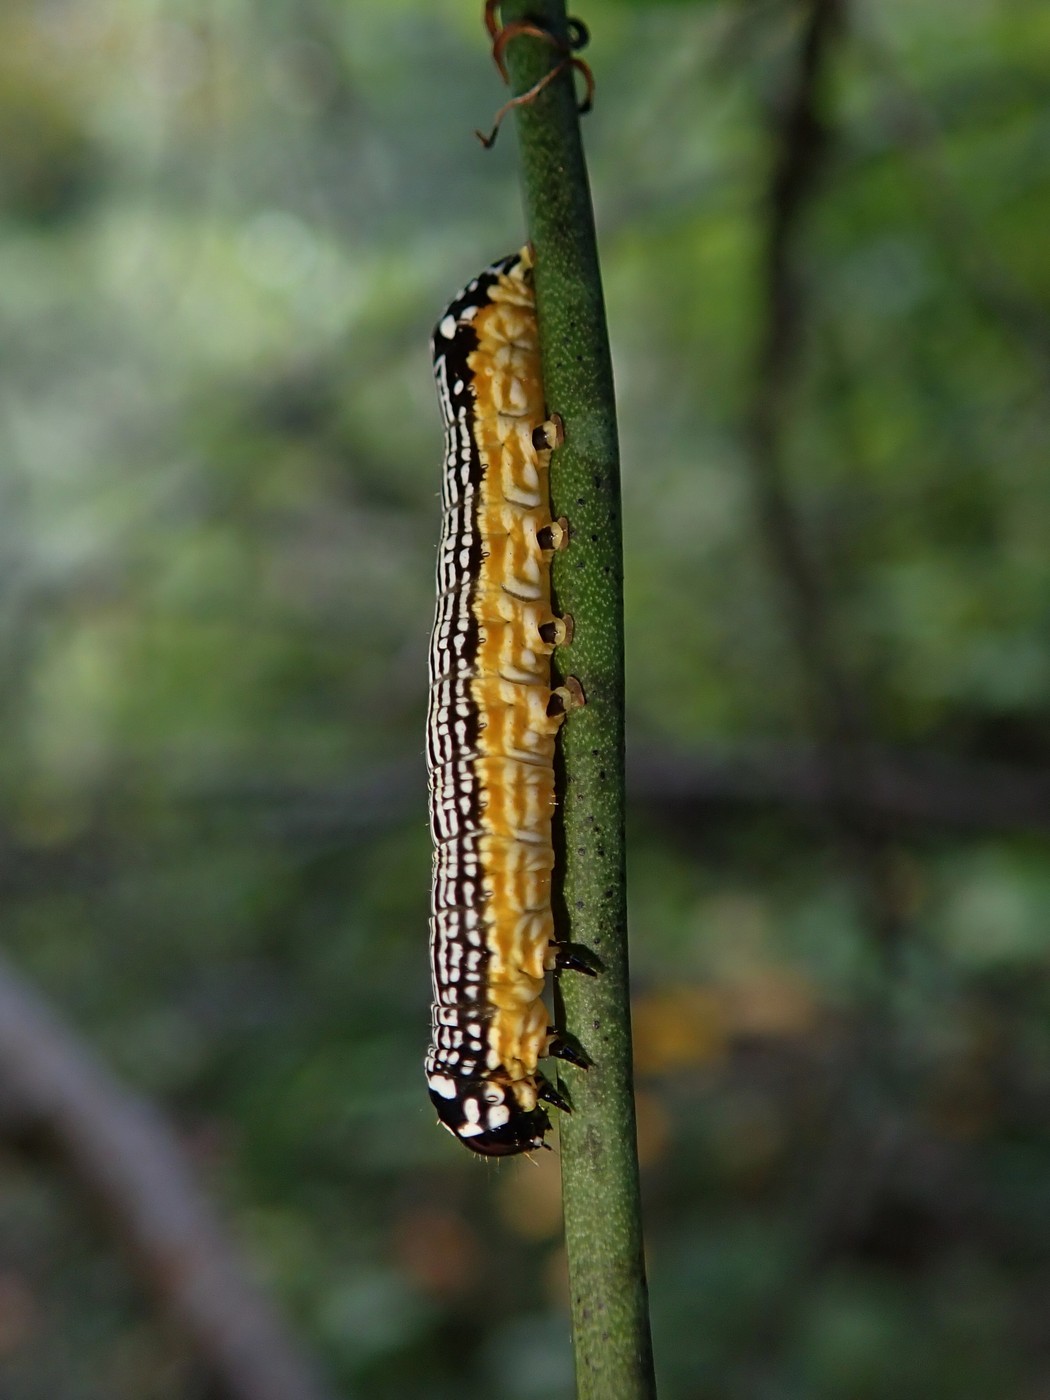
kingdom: Animalia
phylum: Arthropoda
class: Insecta
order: Lepidoptera
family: Noctuidae
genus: Phosphila
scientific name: Phosphila turbulenta
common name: Turbulent phosphila moth
